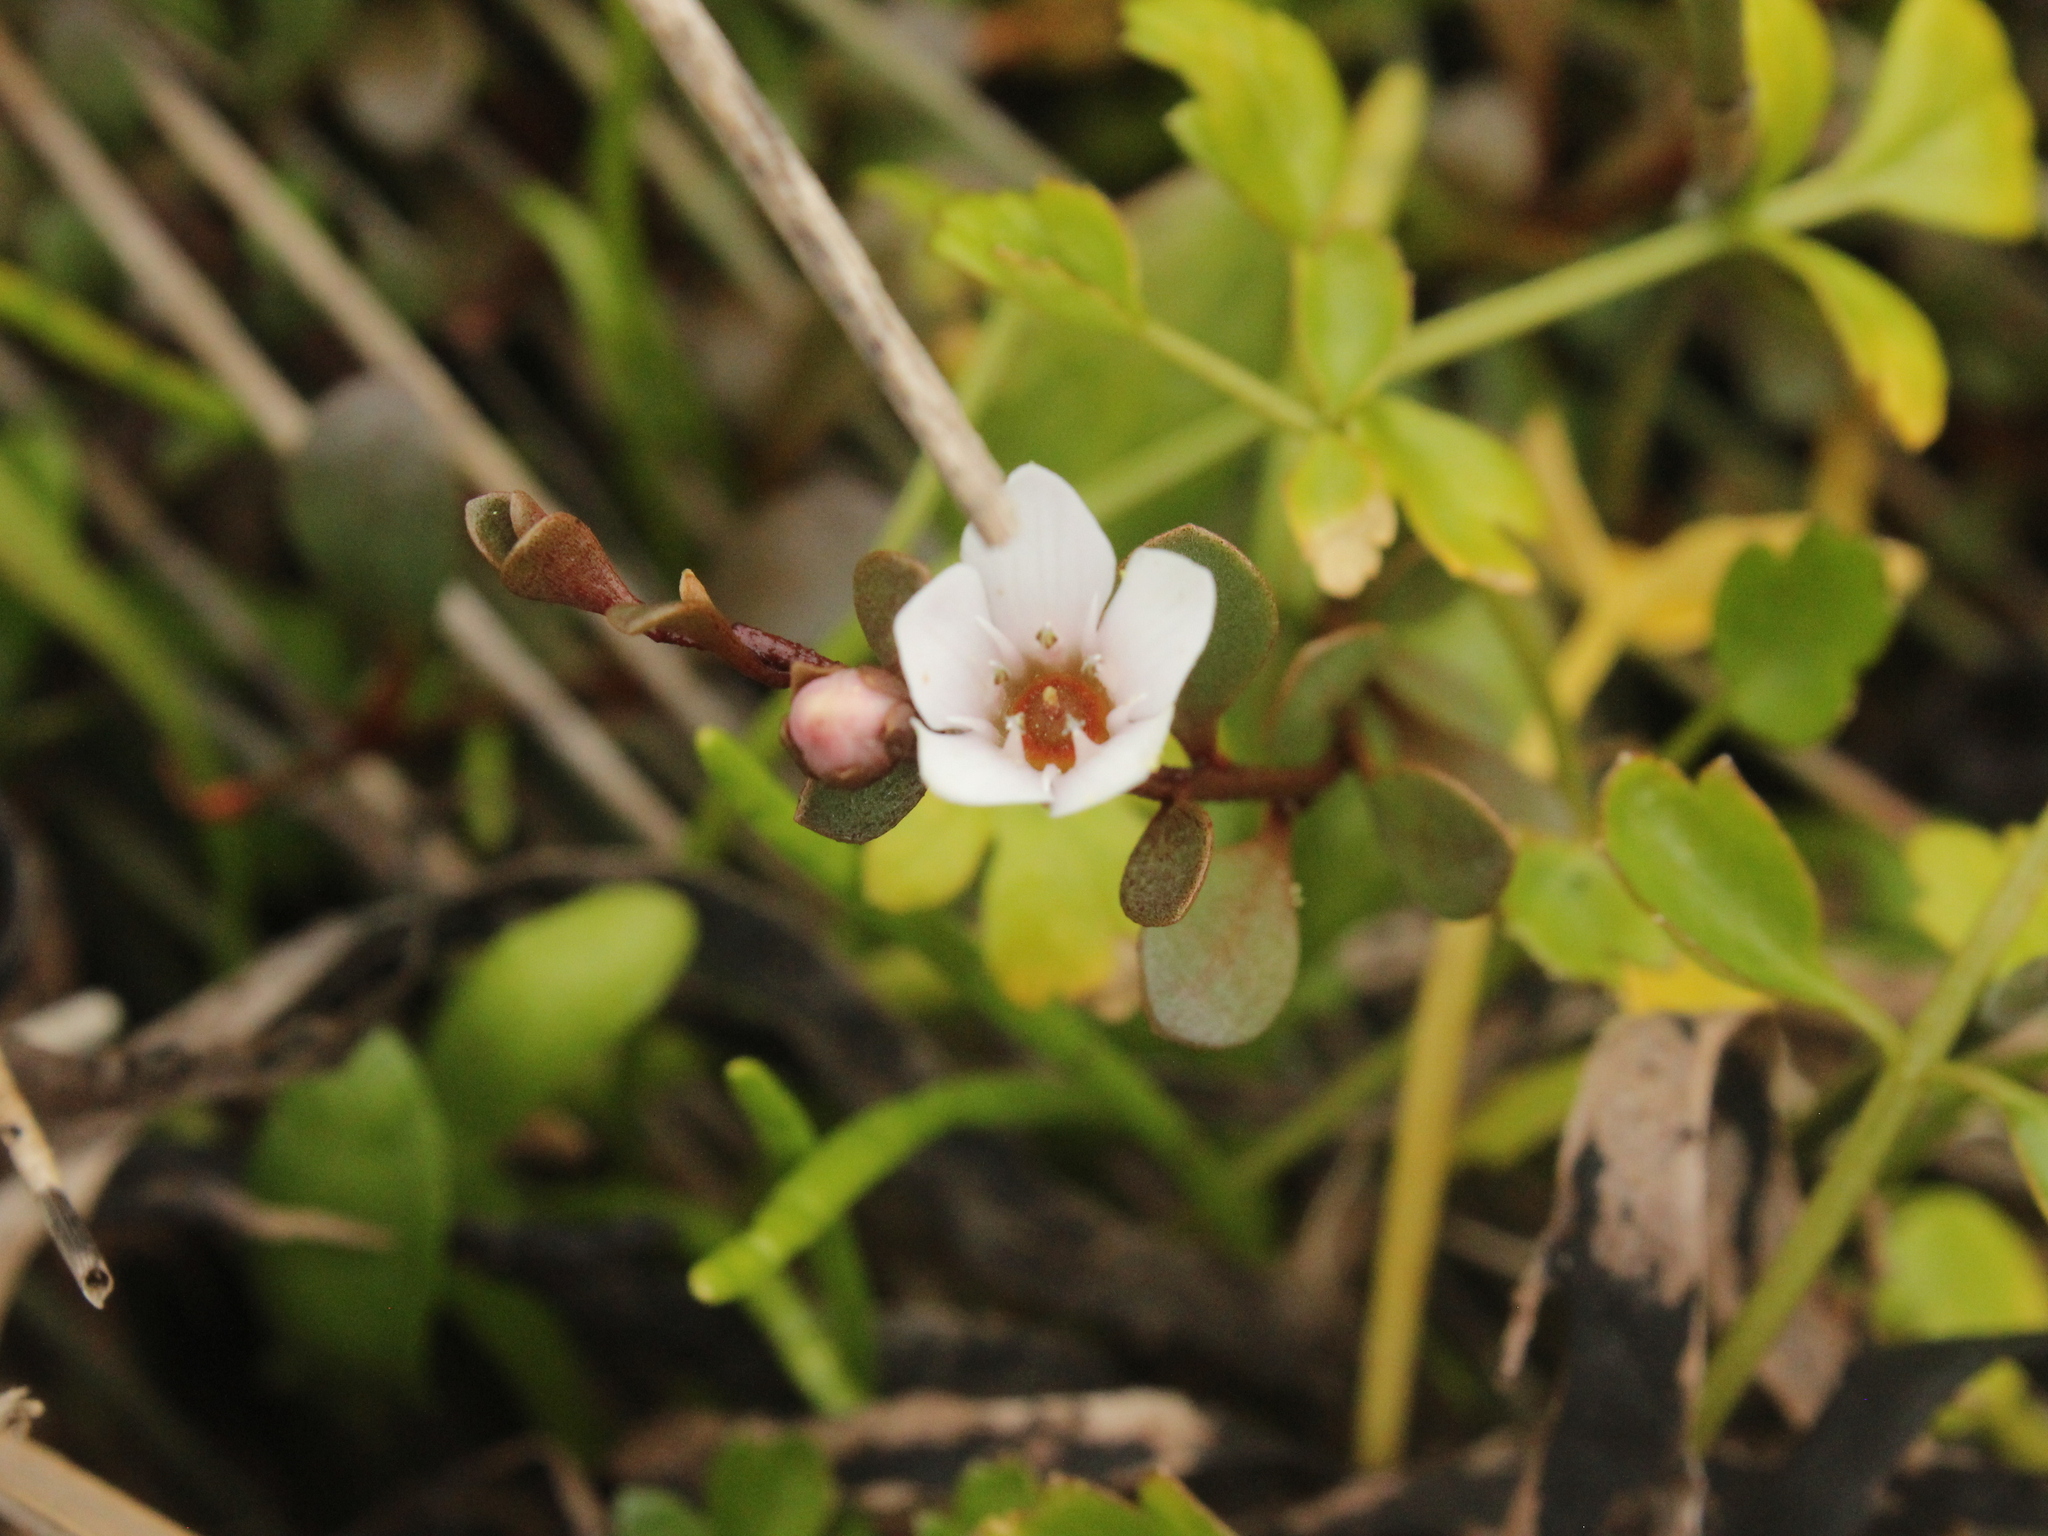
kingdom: Plantae
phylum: Tracheophyta
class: Magnoliopsida
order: Ericales
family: Primulaceae
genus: Samolus
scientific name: Samolus repens
